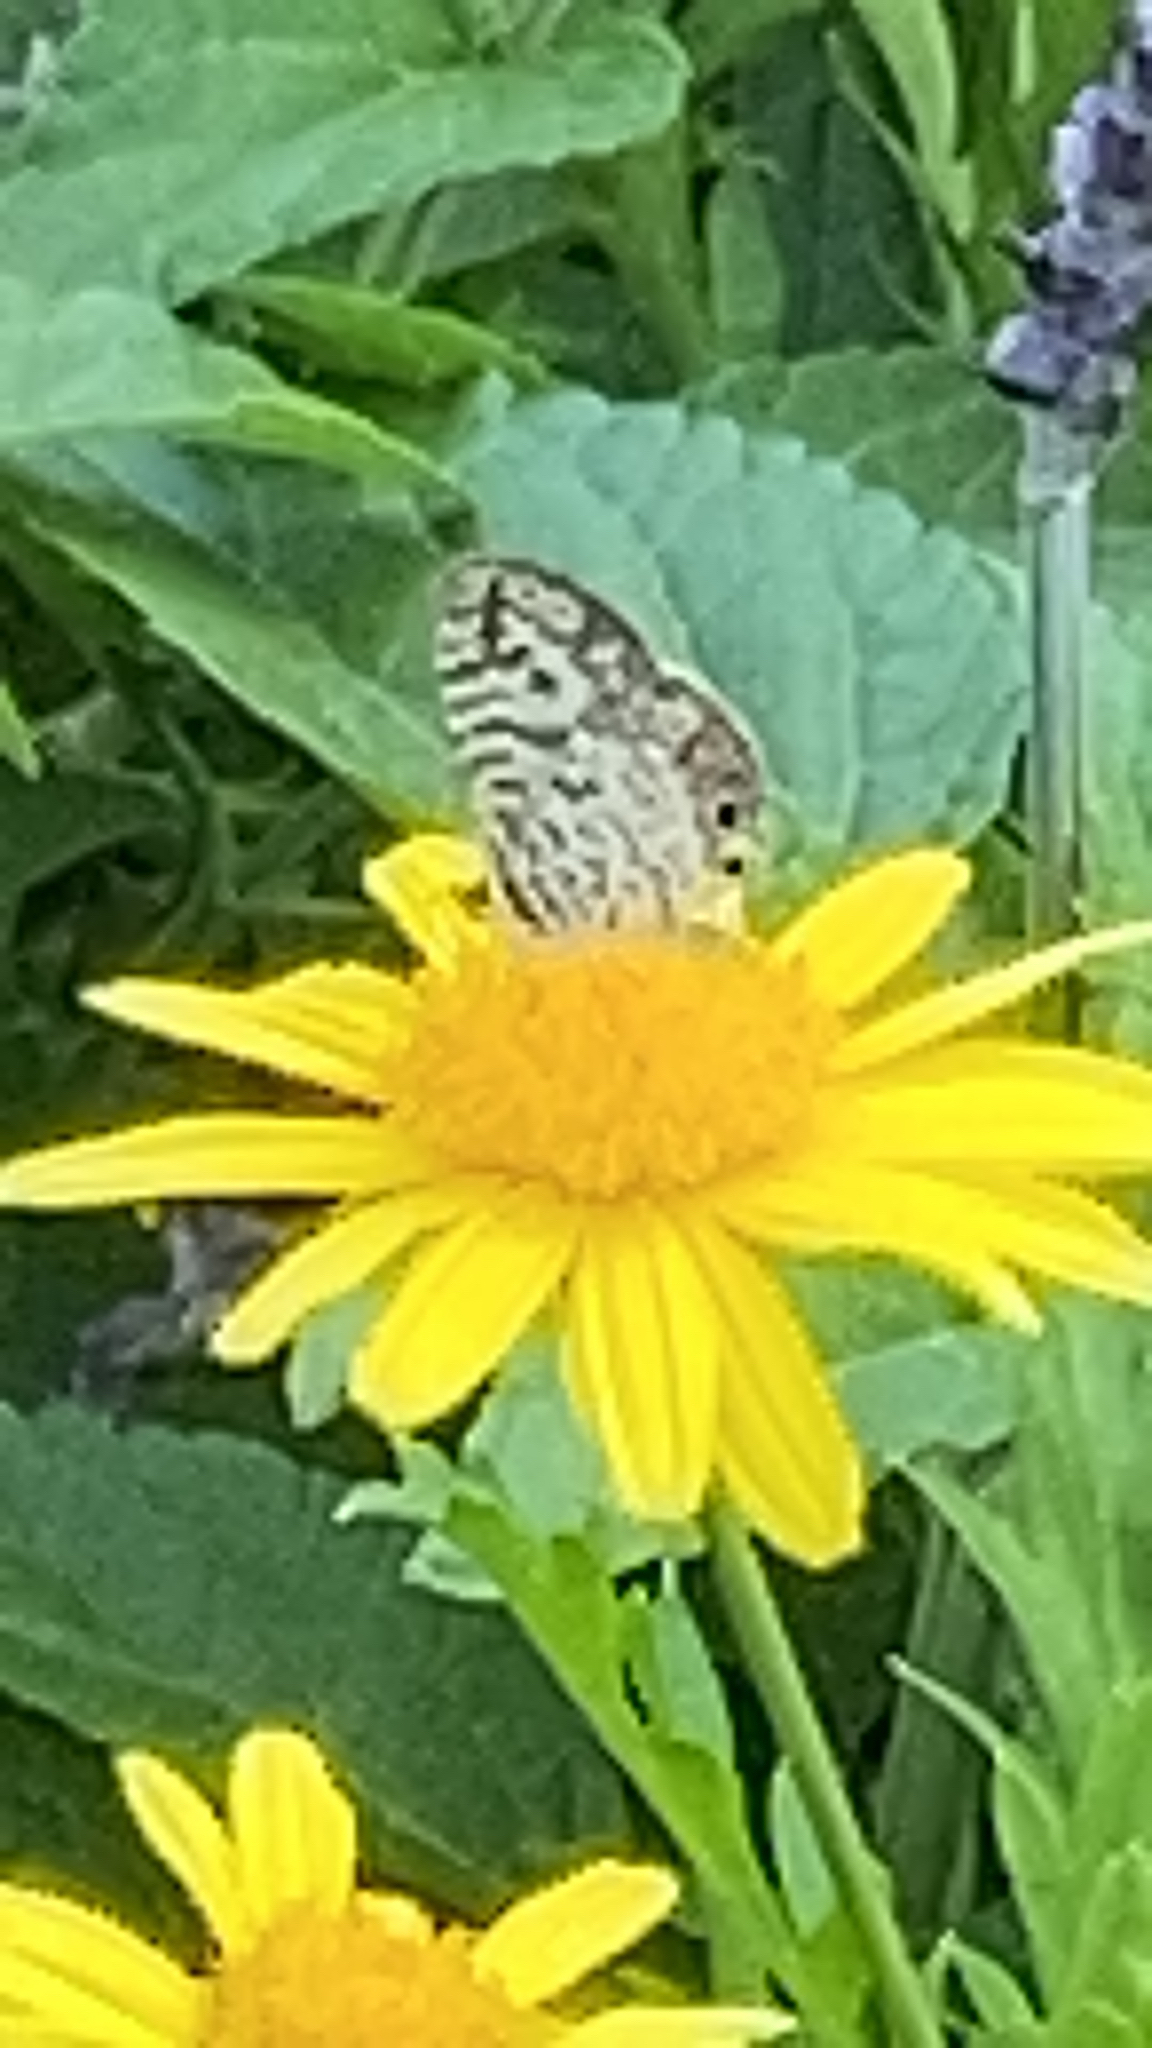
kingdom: Animalia
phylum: Arthropoda
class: Insecta
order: Lepidoptera
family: Lycaenidae
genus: Leptotes
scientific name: Leptotes cassius
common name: Cassius blue
